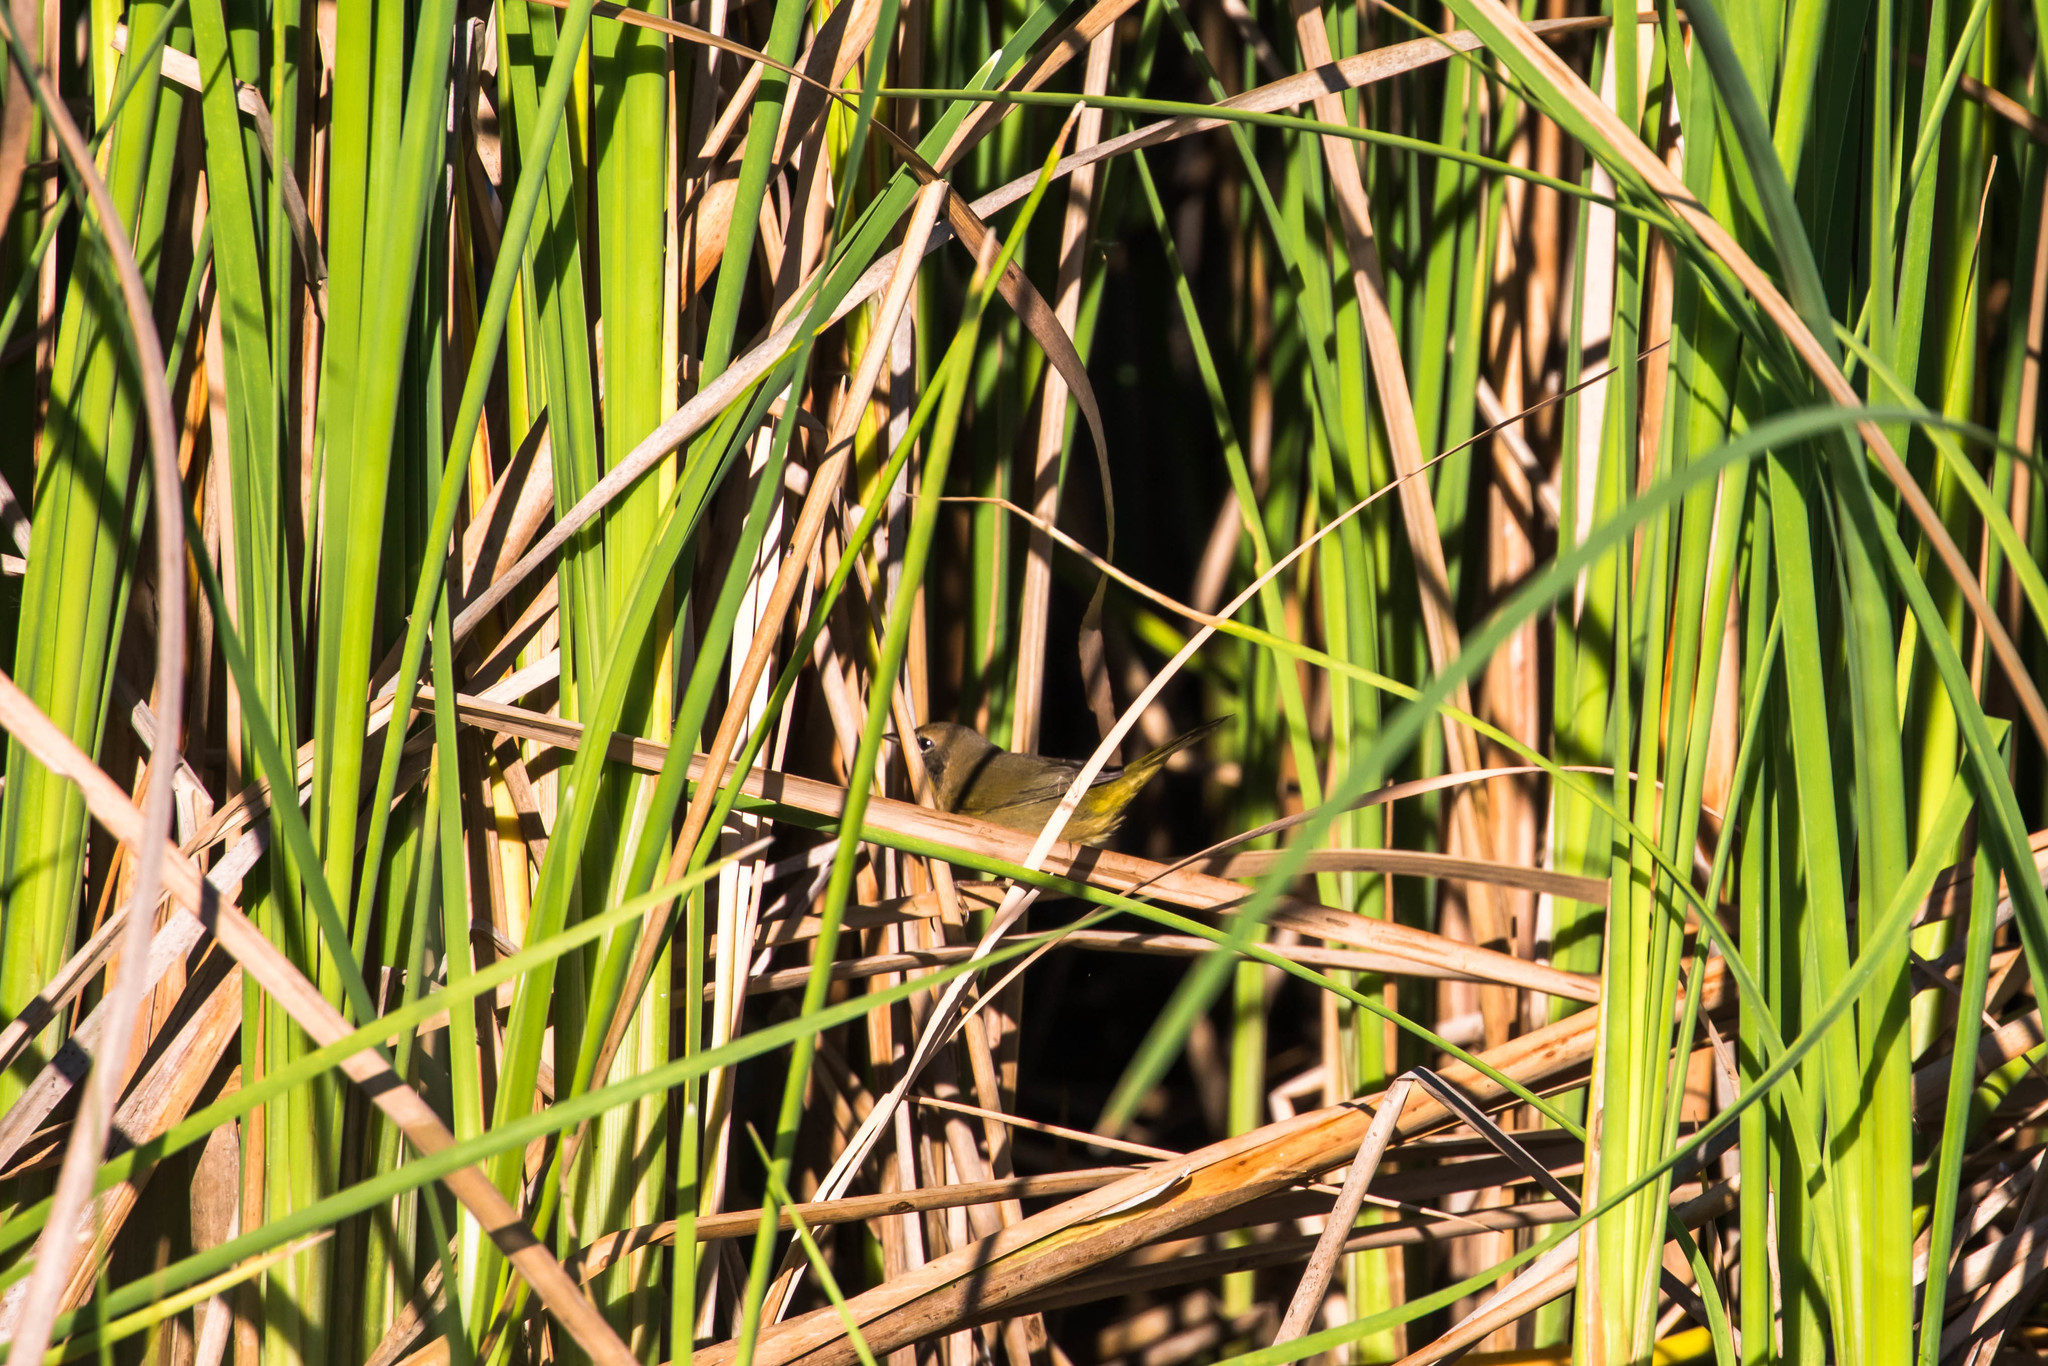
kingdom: Animalia
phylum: Chordata
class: Aves
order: Passeriformes
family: Parulidae
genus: Geothlypis
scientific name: Geothlypis trichas
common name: Common yellowthroat
